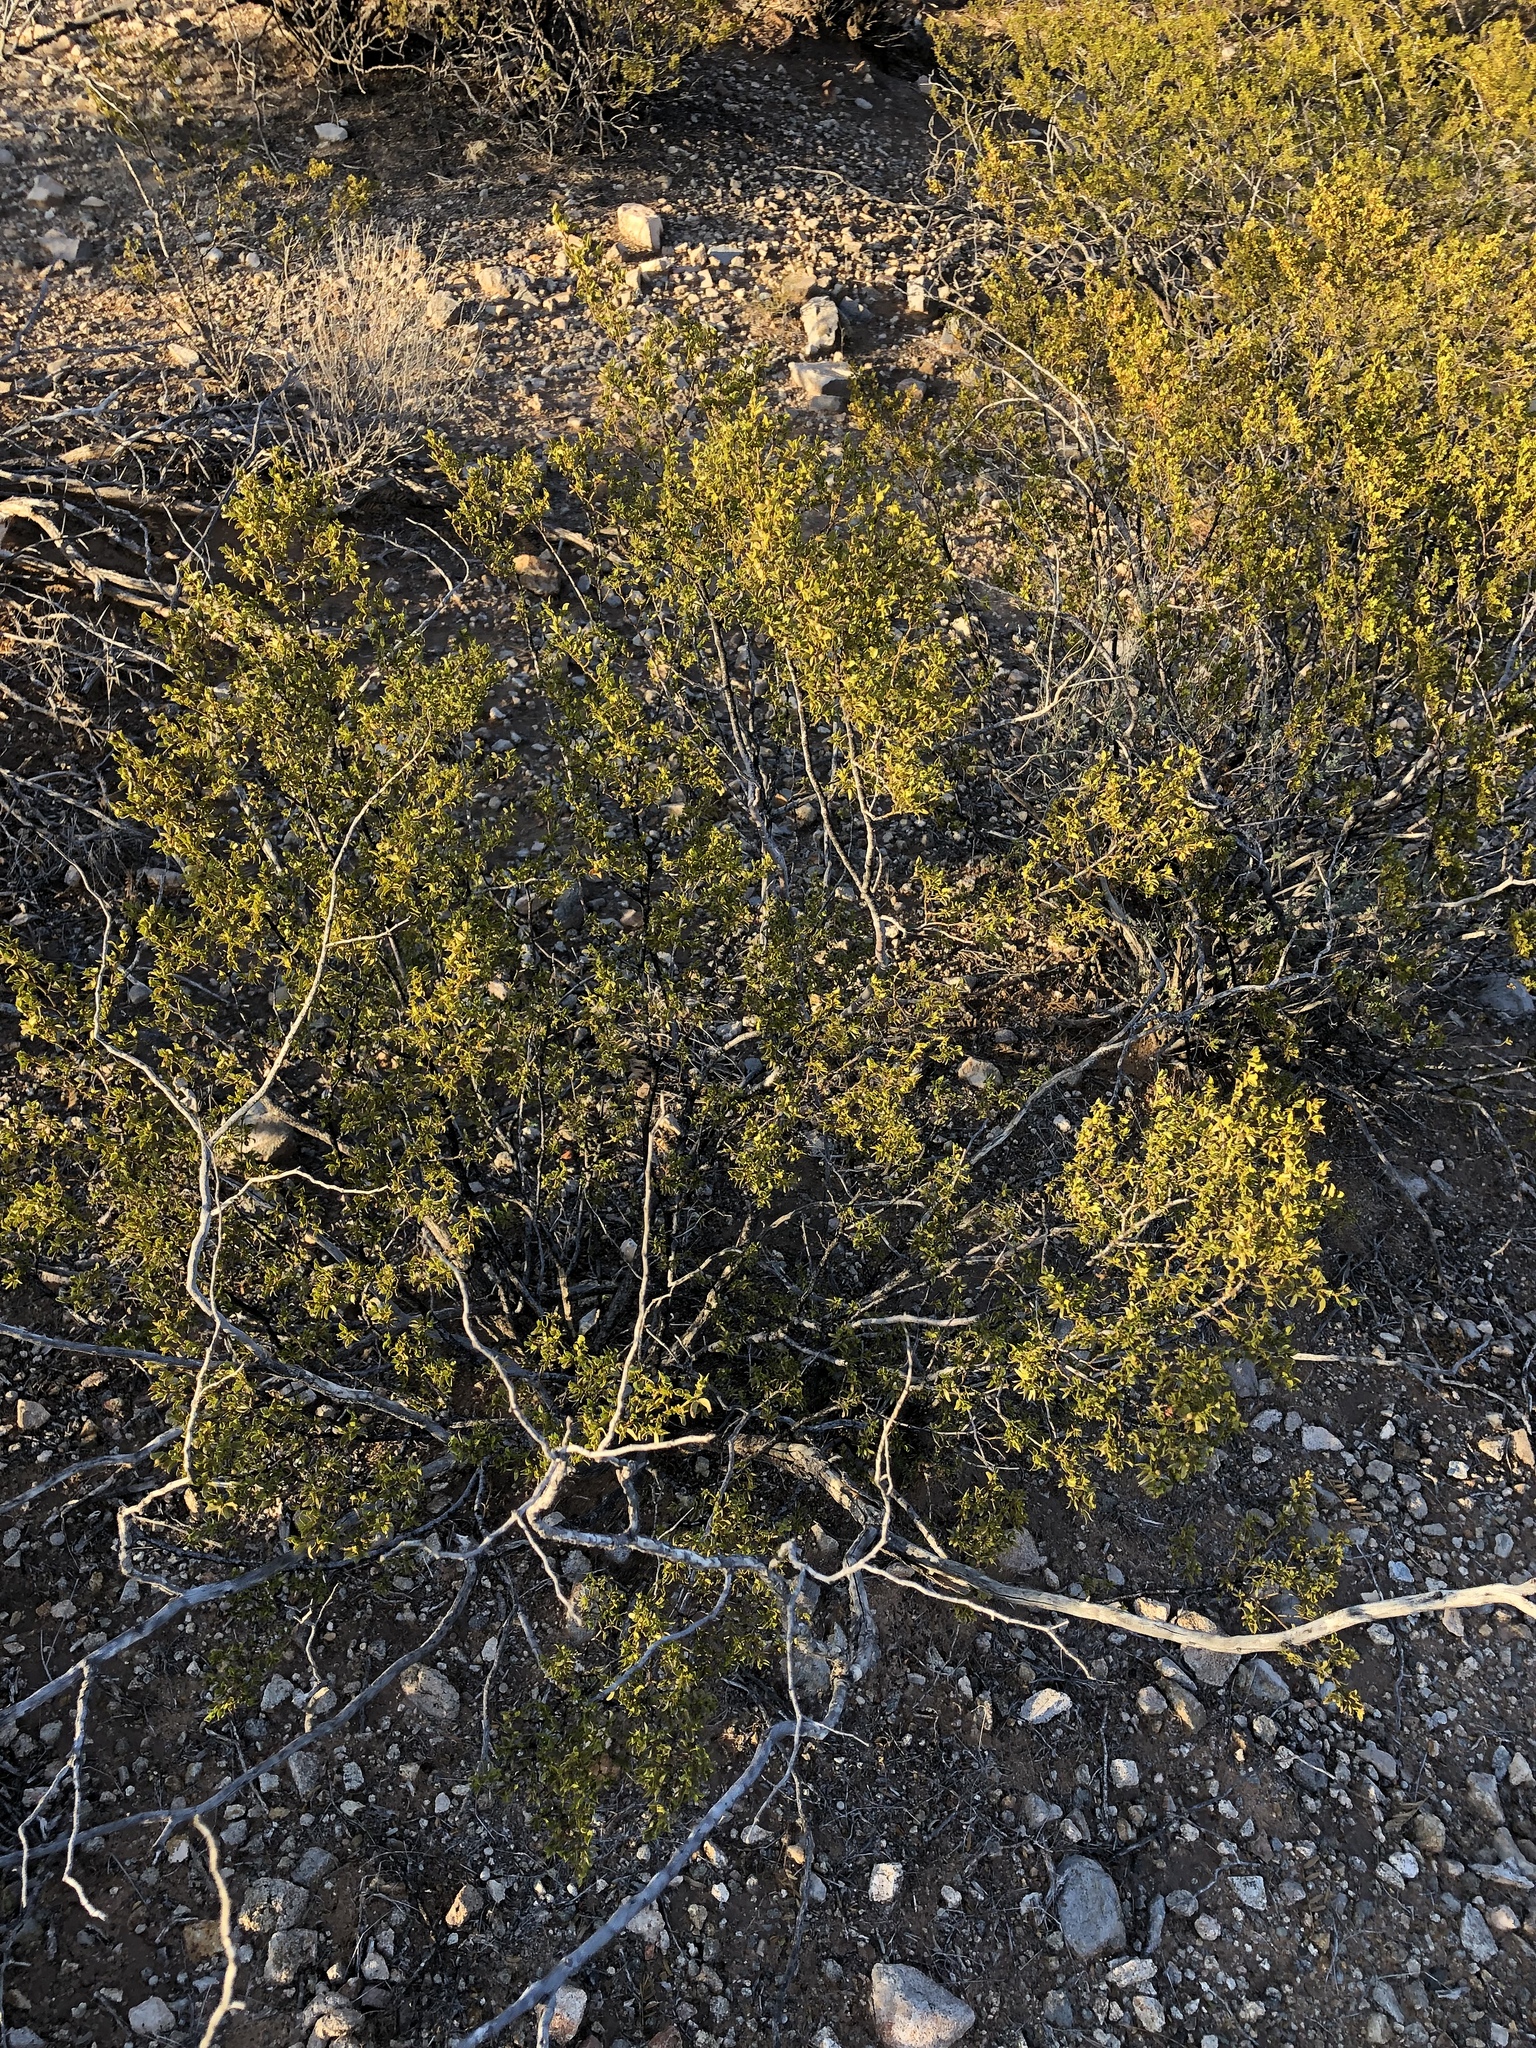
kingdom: Plantae
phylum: Tracheophyta
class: Magnoliopsida
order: Zygophyllales
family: Zygophyllaceae
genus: Larrea
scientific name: Larrea tridentata
